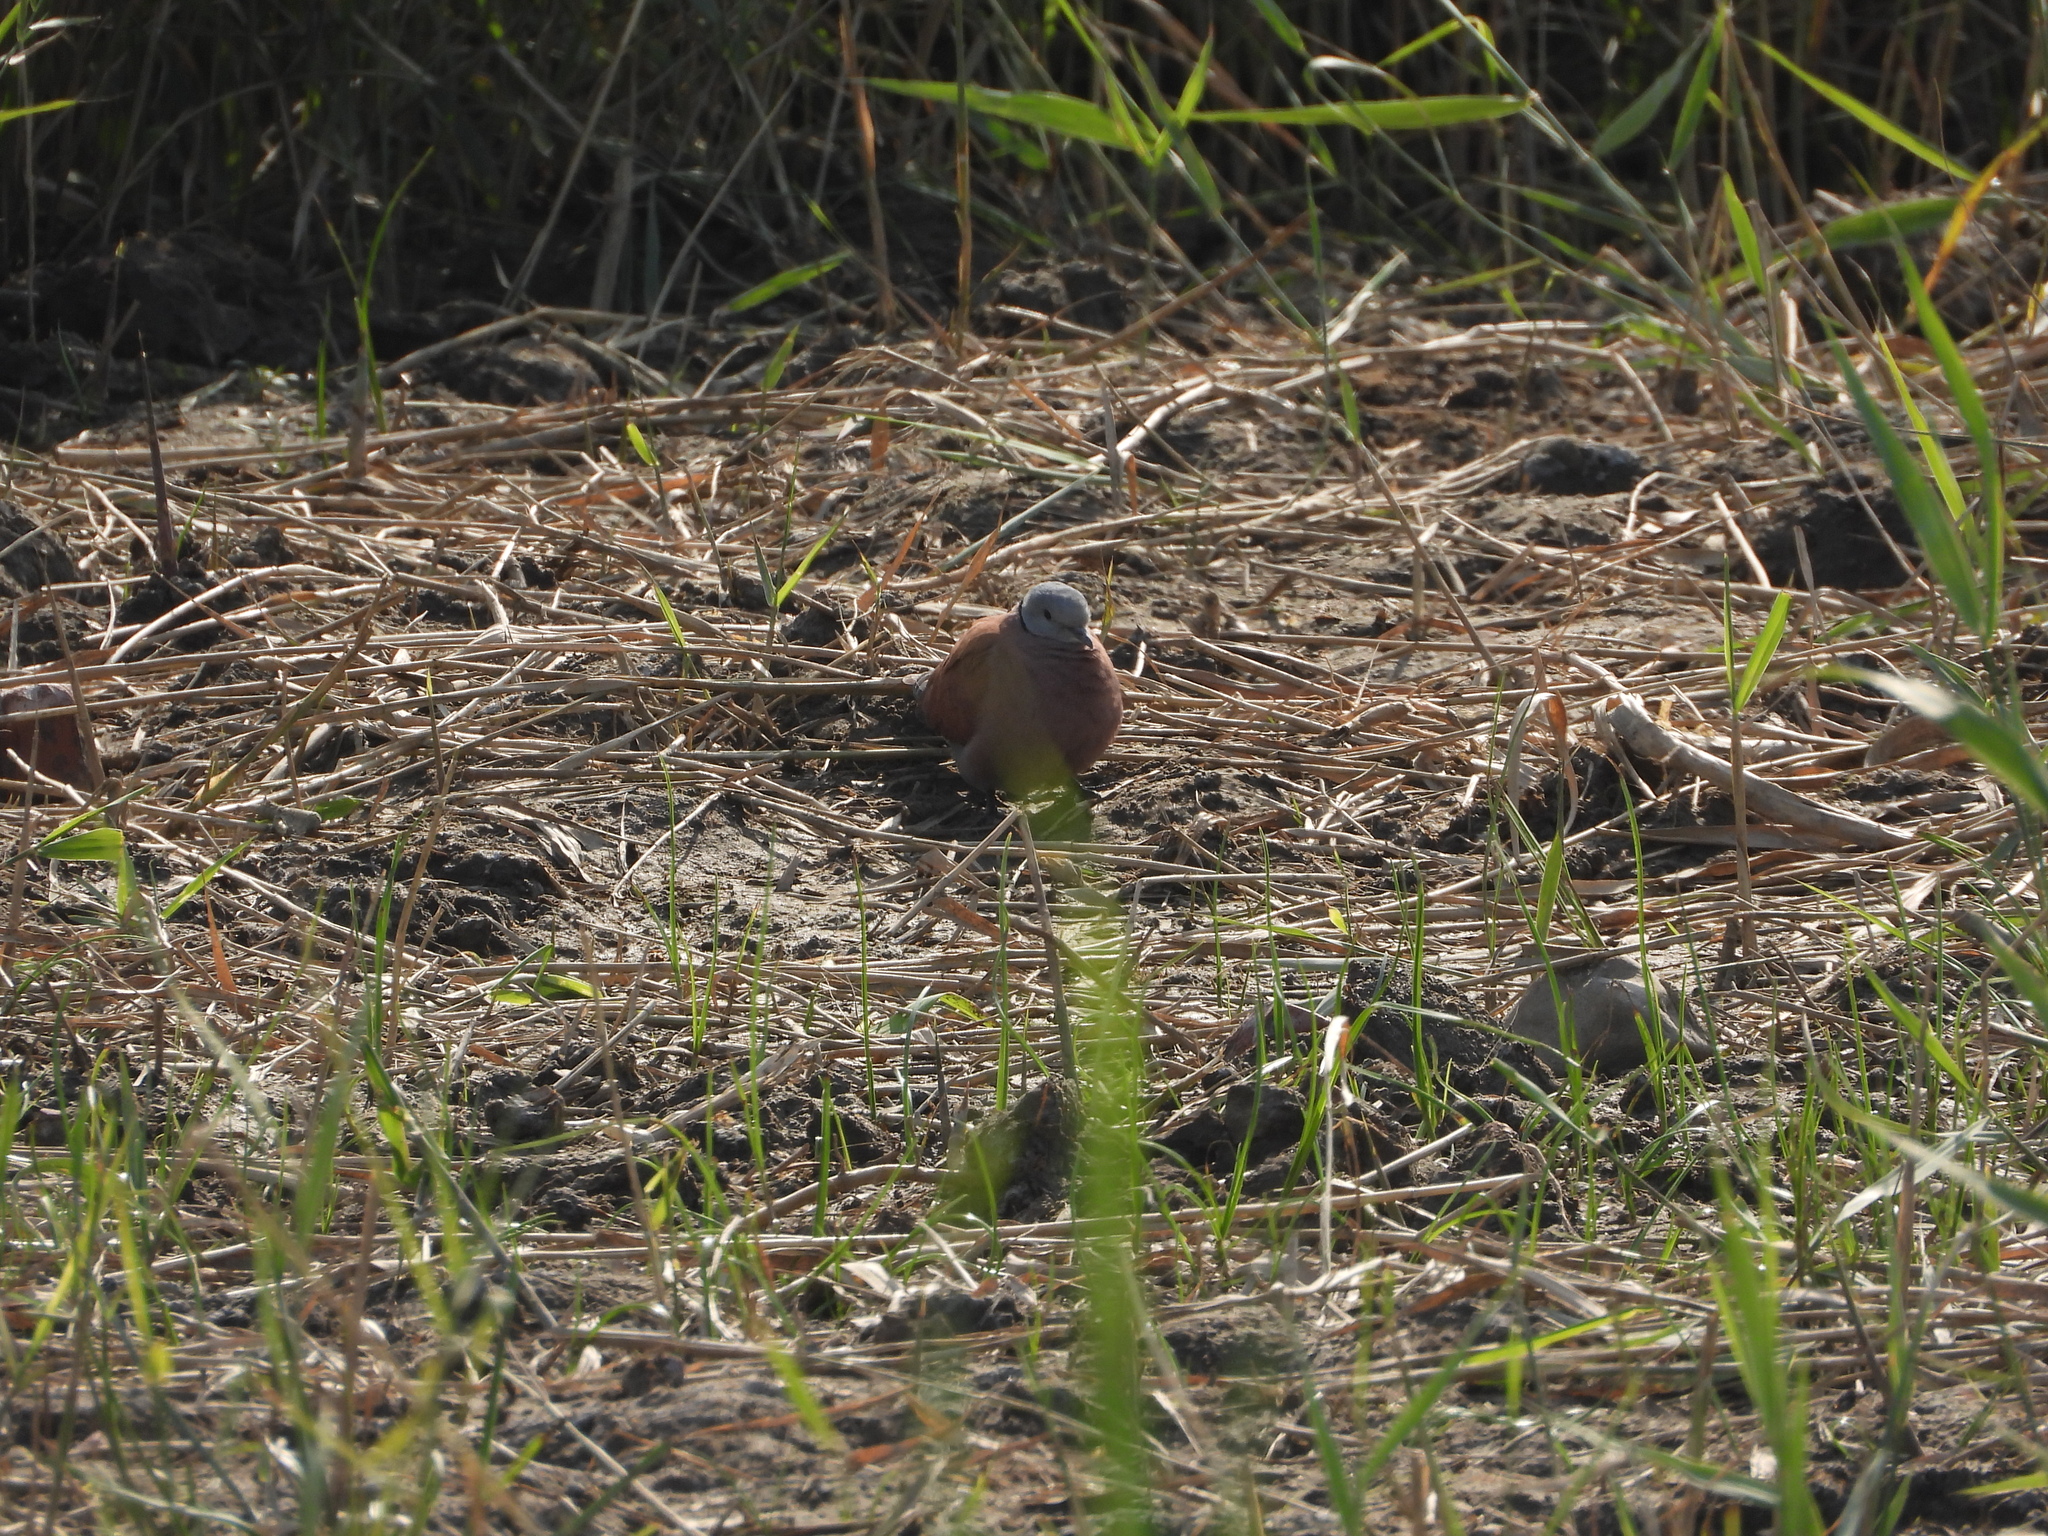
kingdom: Animalia
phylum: Chordata
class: Aves
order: Columbiformes
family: Columbidae
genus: Streptopelia
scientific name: Streptopelia tranquebarica
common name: Red turtle dove
